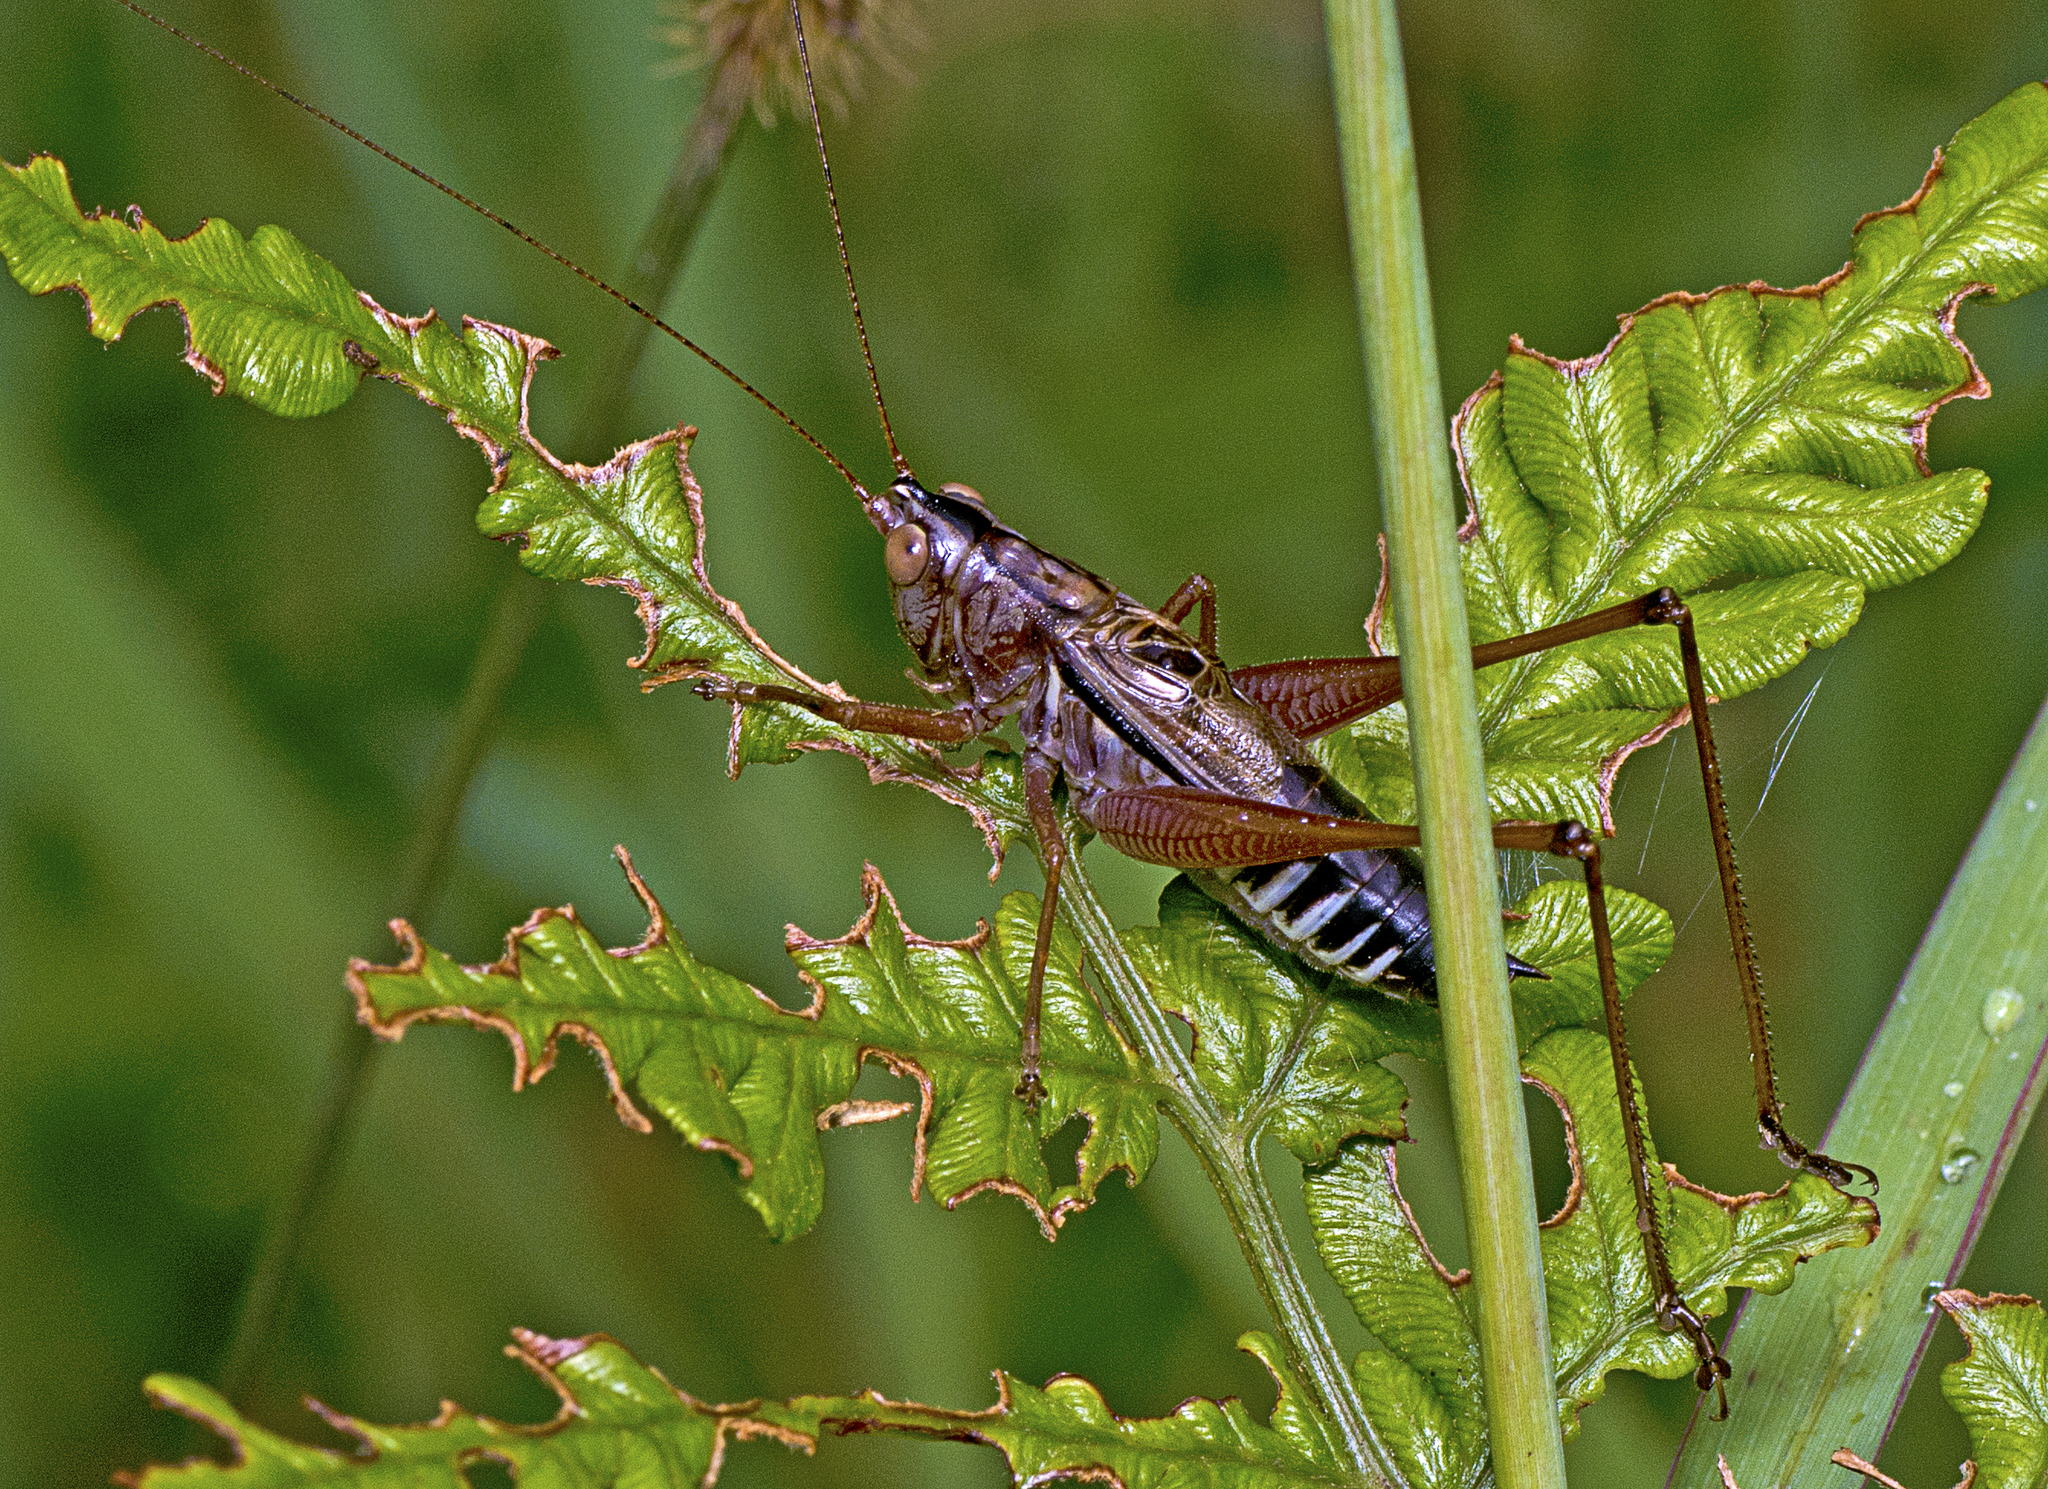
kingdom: Animalia
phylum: Arthropoda
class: Insecta
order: Orthoptera
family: Tettigoniidae
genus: Conocephalus
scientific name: Conocephalus semivittatus
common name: Blackish meadow katydid
